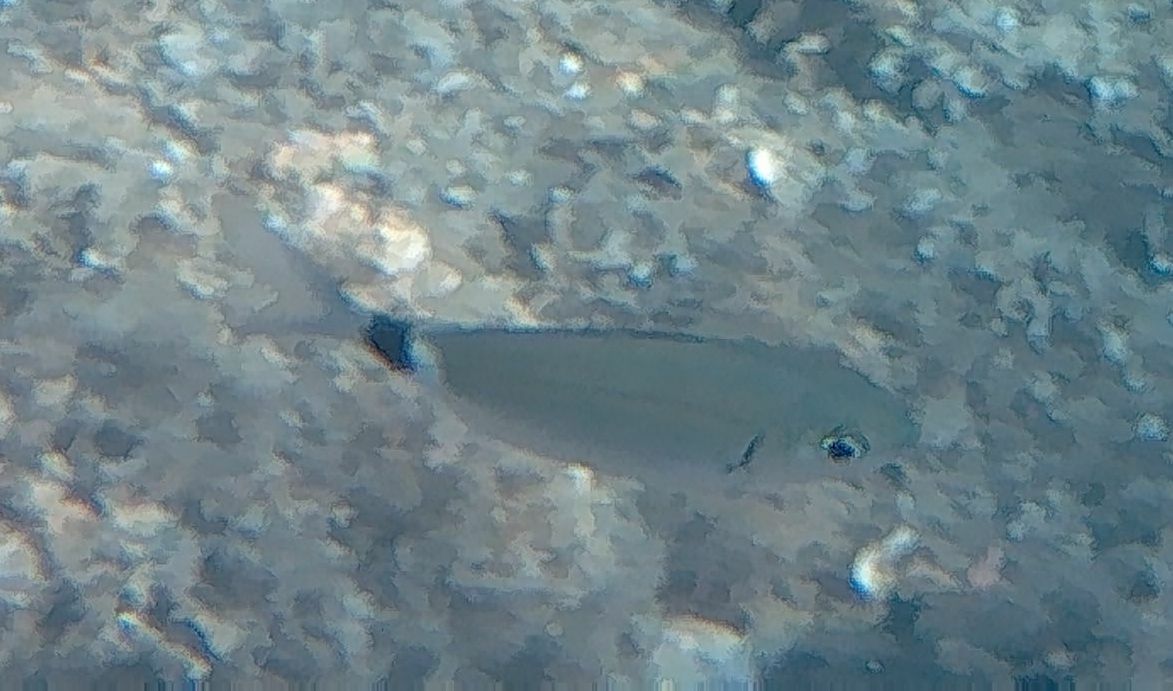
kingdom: Animalia
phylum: Chordata
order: Perciformes
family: Sparidae
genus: Oblada
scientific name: Oblada melanura
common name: Saddled seabream
